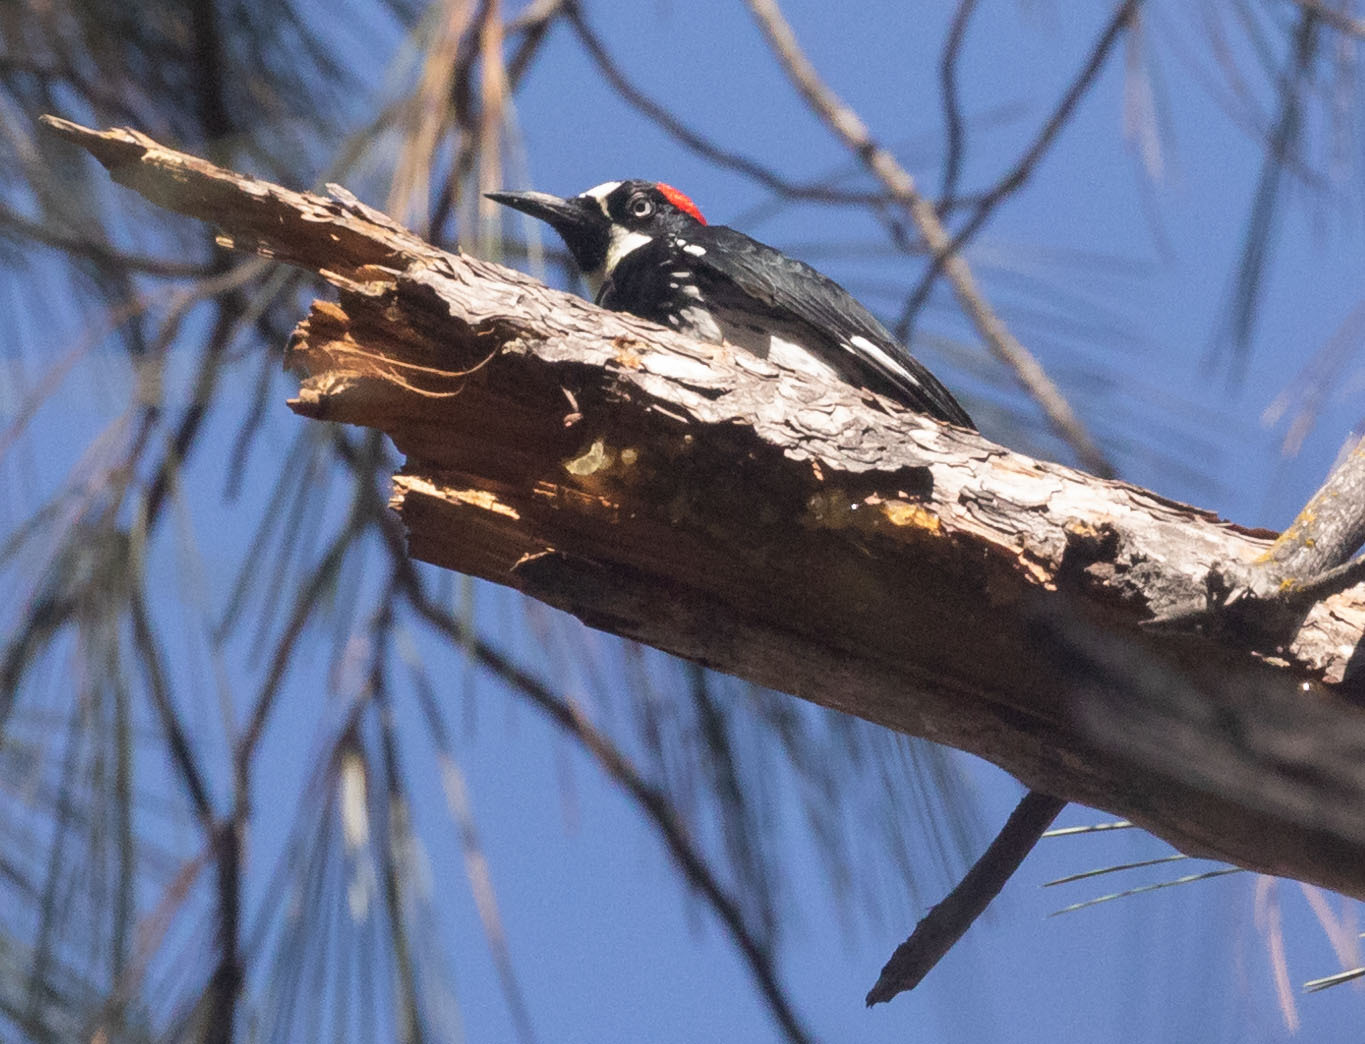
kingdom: Animalia
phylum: Chordata
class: Aves
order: Piciformes
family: Picidae
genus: Melanerpes
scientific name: Melanerpes formicivorus
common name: Acorn woodpecker
